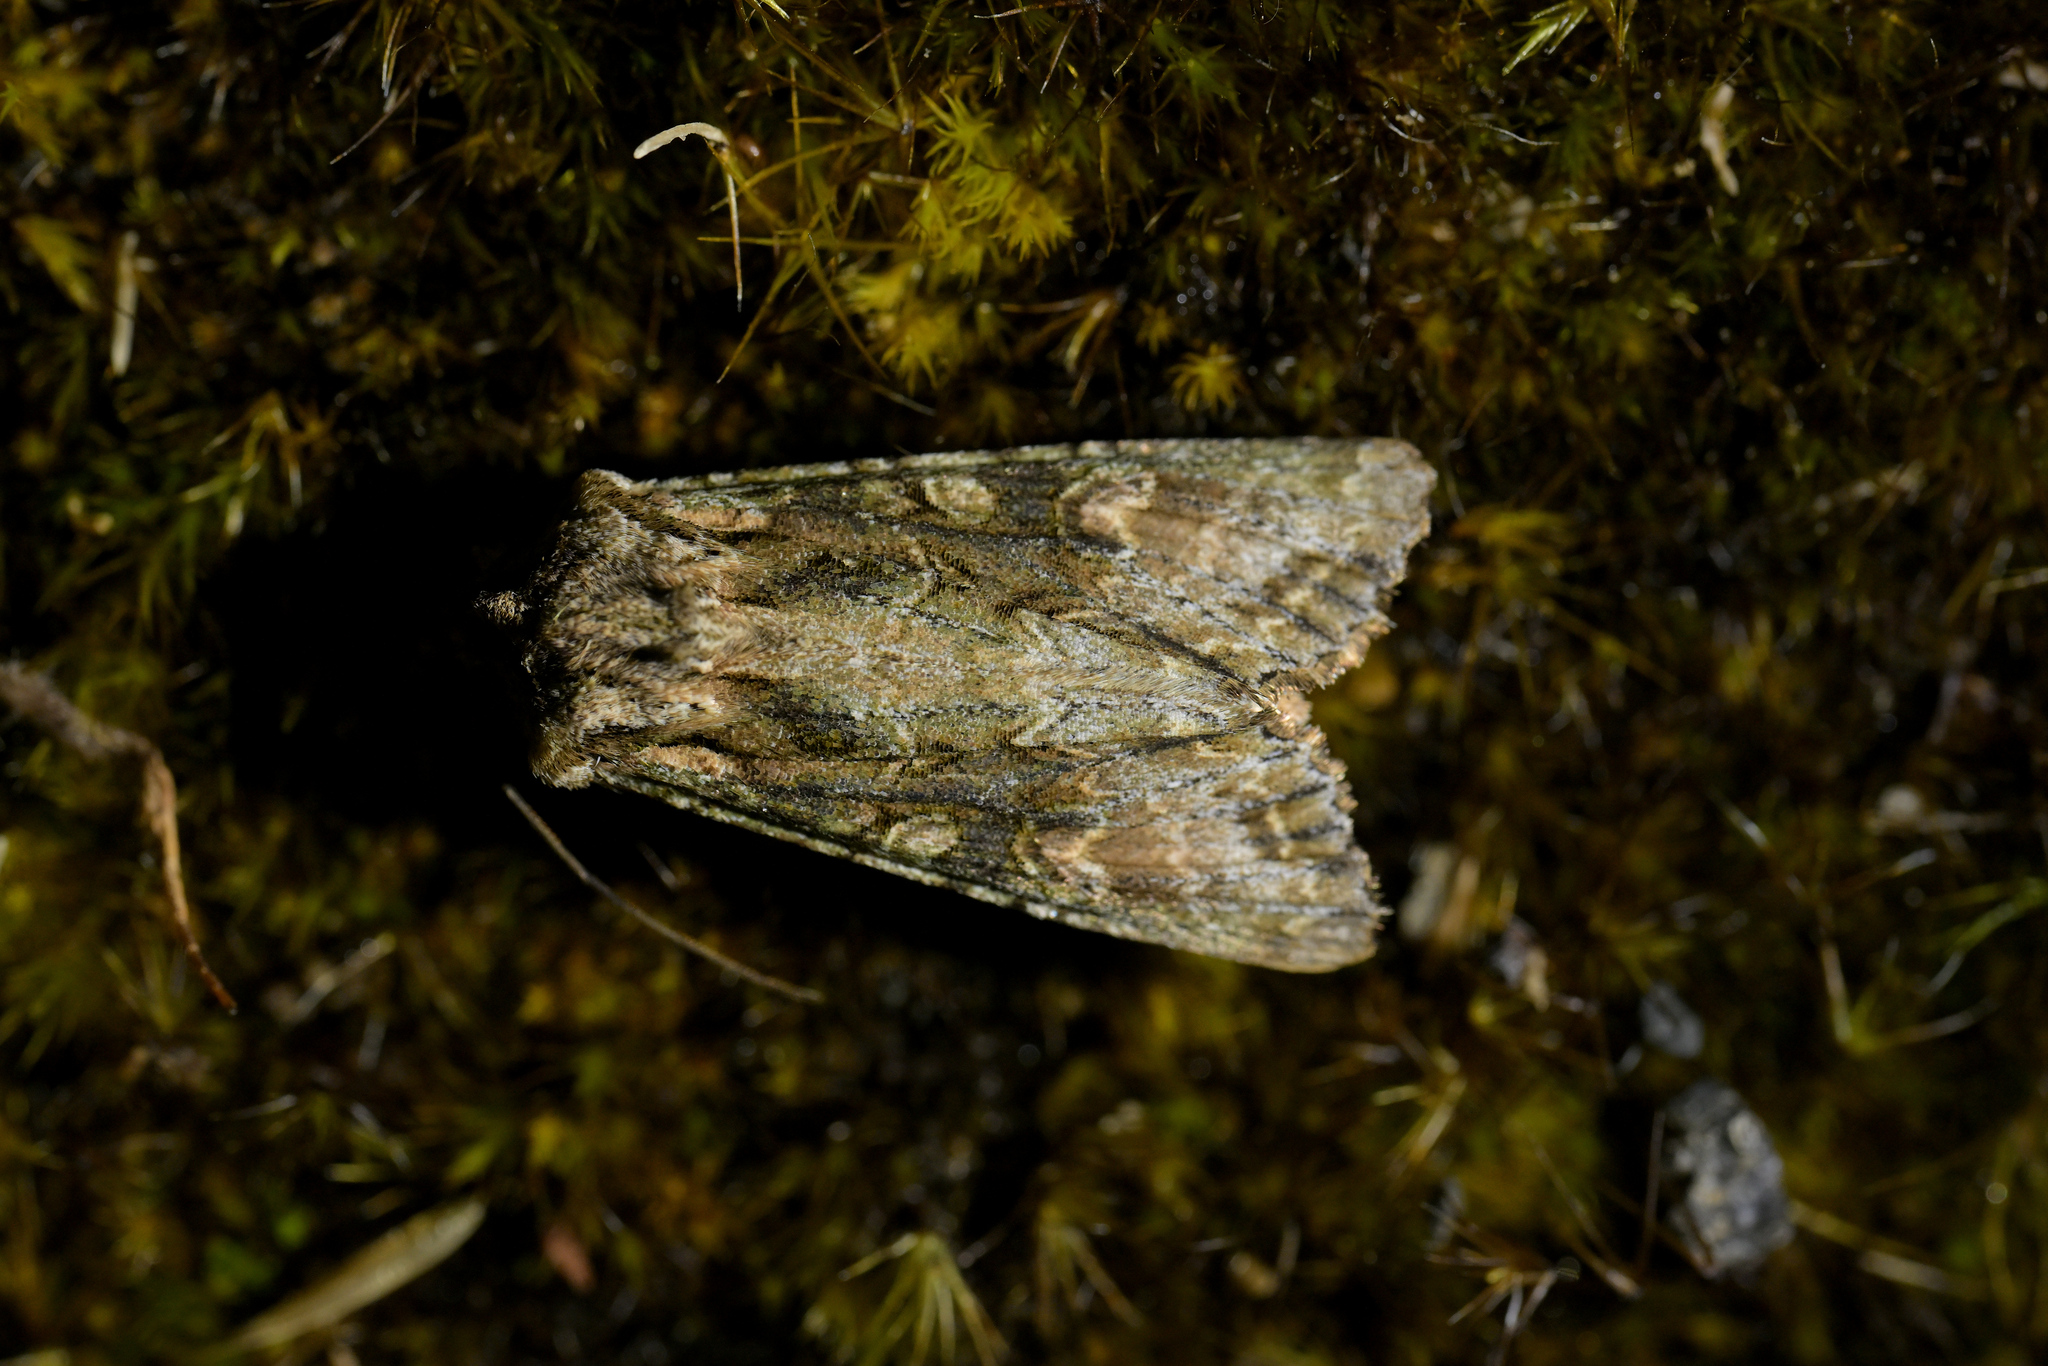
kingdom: Animalia
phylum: Arthropoda
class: Insecta
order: Lepidoptera
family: Noctuidae
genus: Ichneutica
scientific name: Ichneutica mutans
